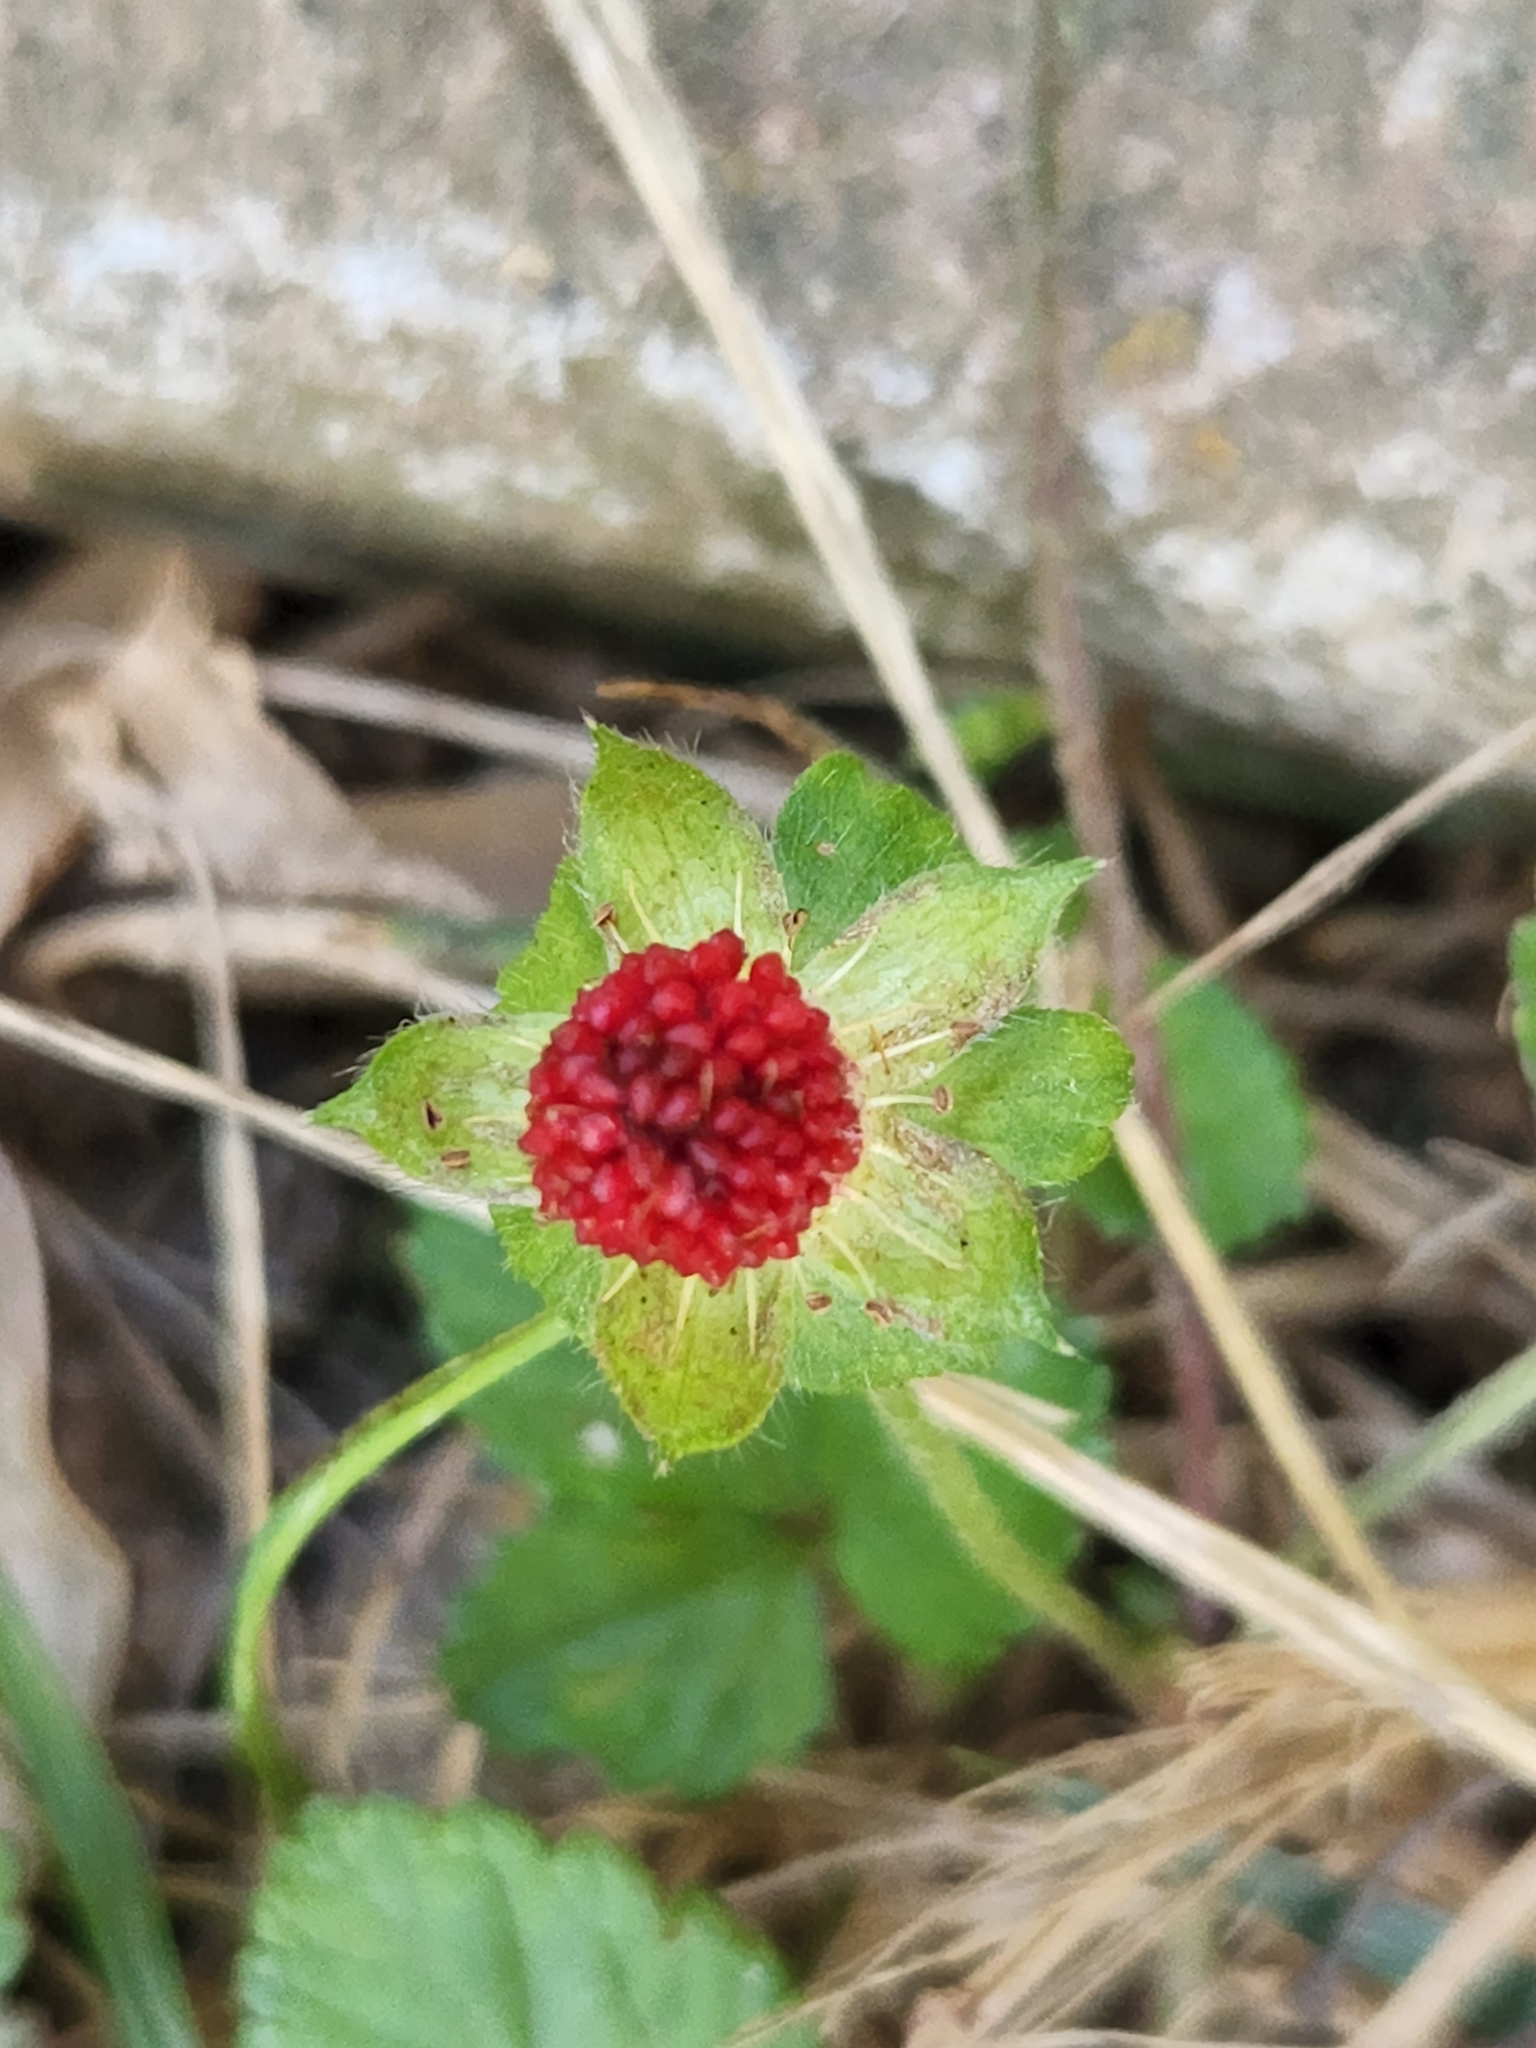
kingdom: Plantae
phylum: Tracheophyta
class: Magnoliopsida
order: Rosales
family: Rosaceae
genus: Potentilla
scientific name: Potentilla indica
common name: Yellow-flowered strawberry
